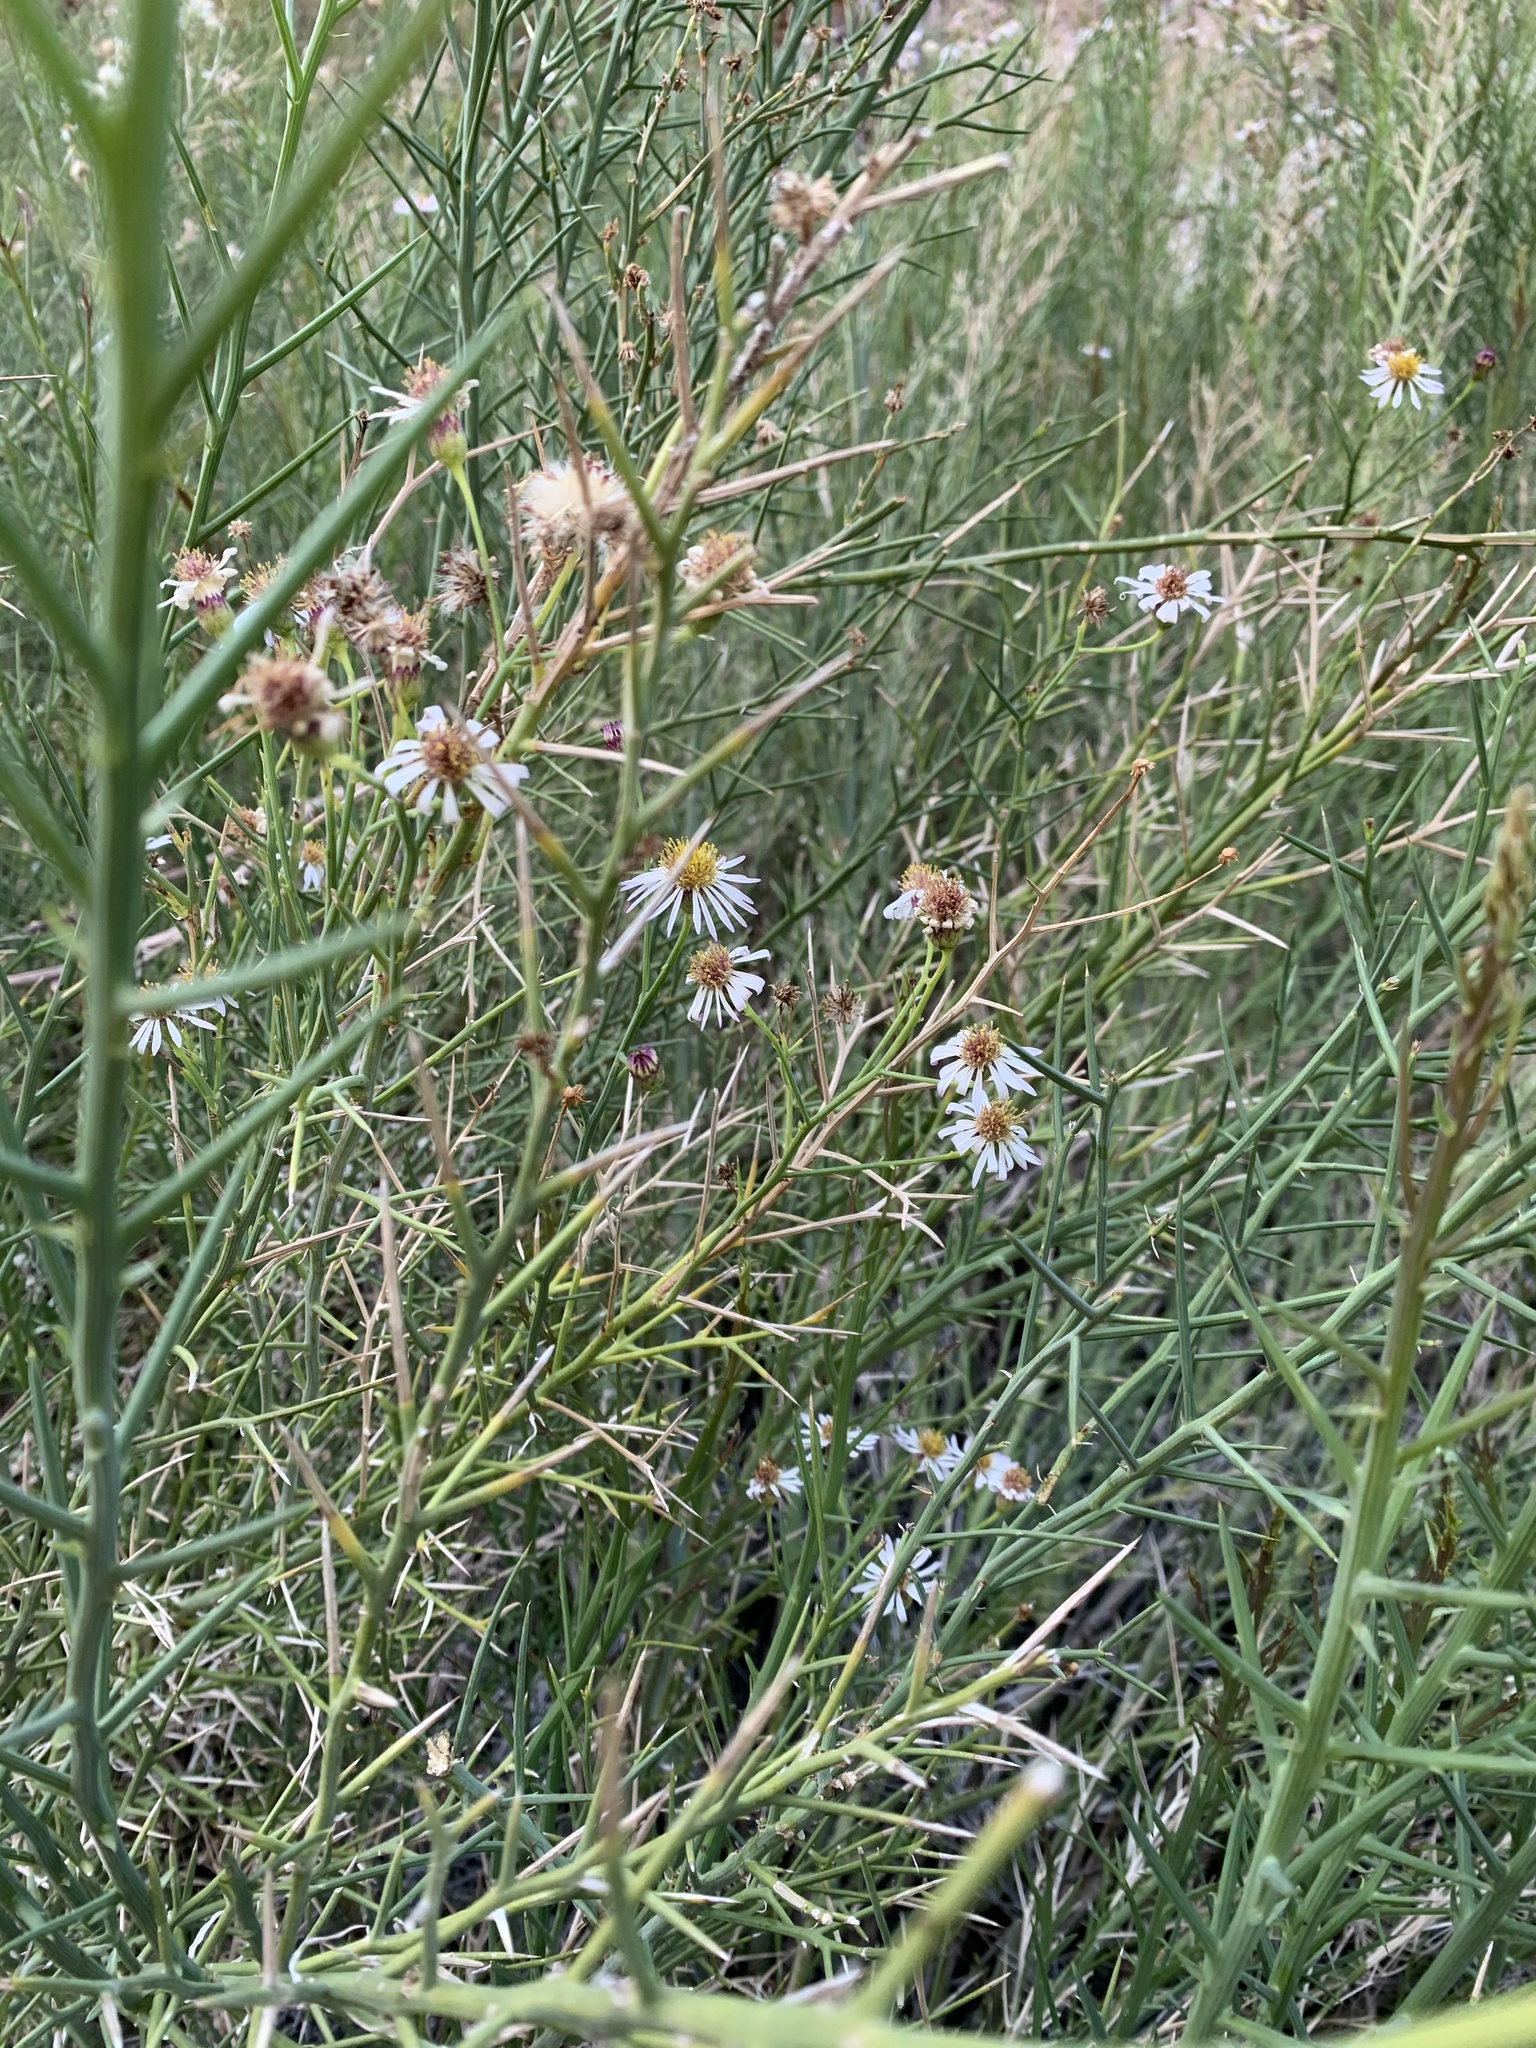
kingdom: Plantae
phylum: Tracheophyta
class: Magnoliopsida
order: Asterales
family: Asteraceae
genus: Chloracantha
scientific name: Chloracantha spinosa
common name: Mexican devilweed
